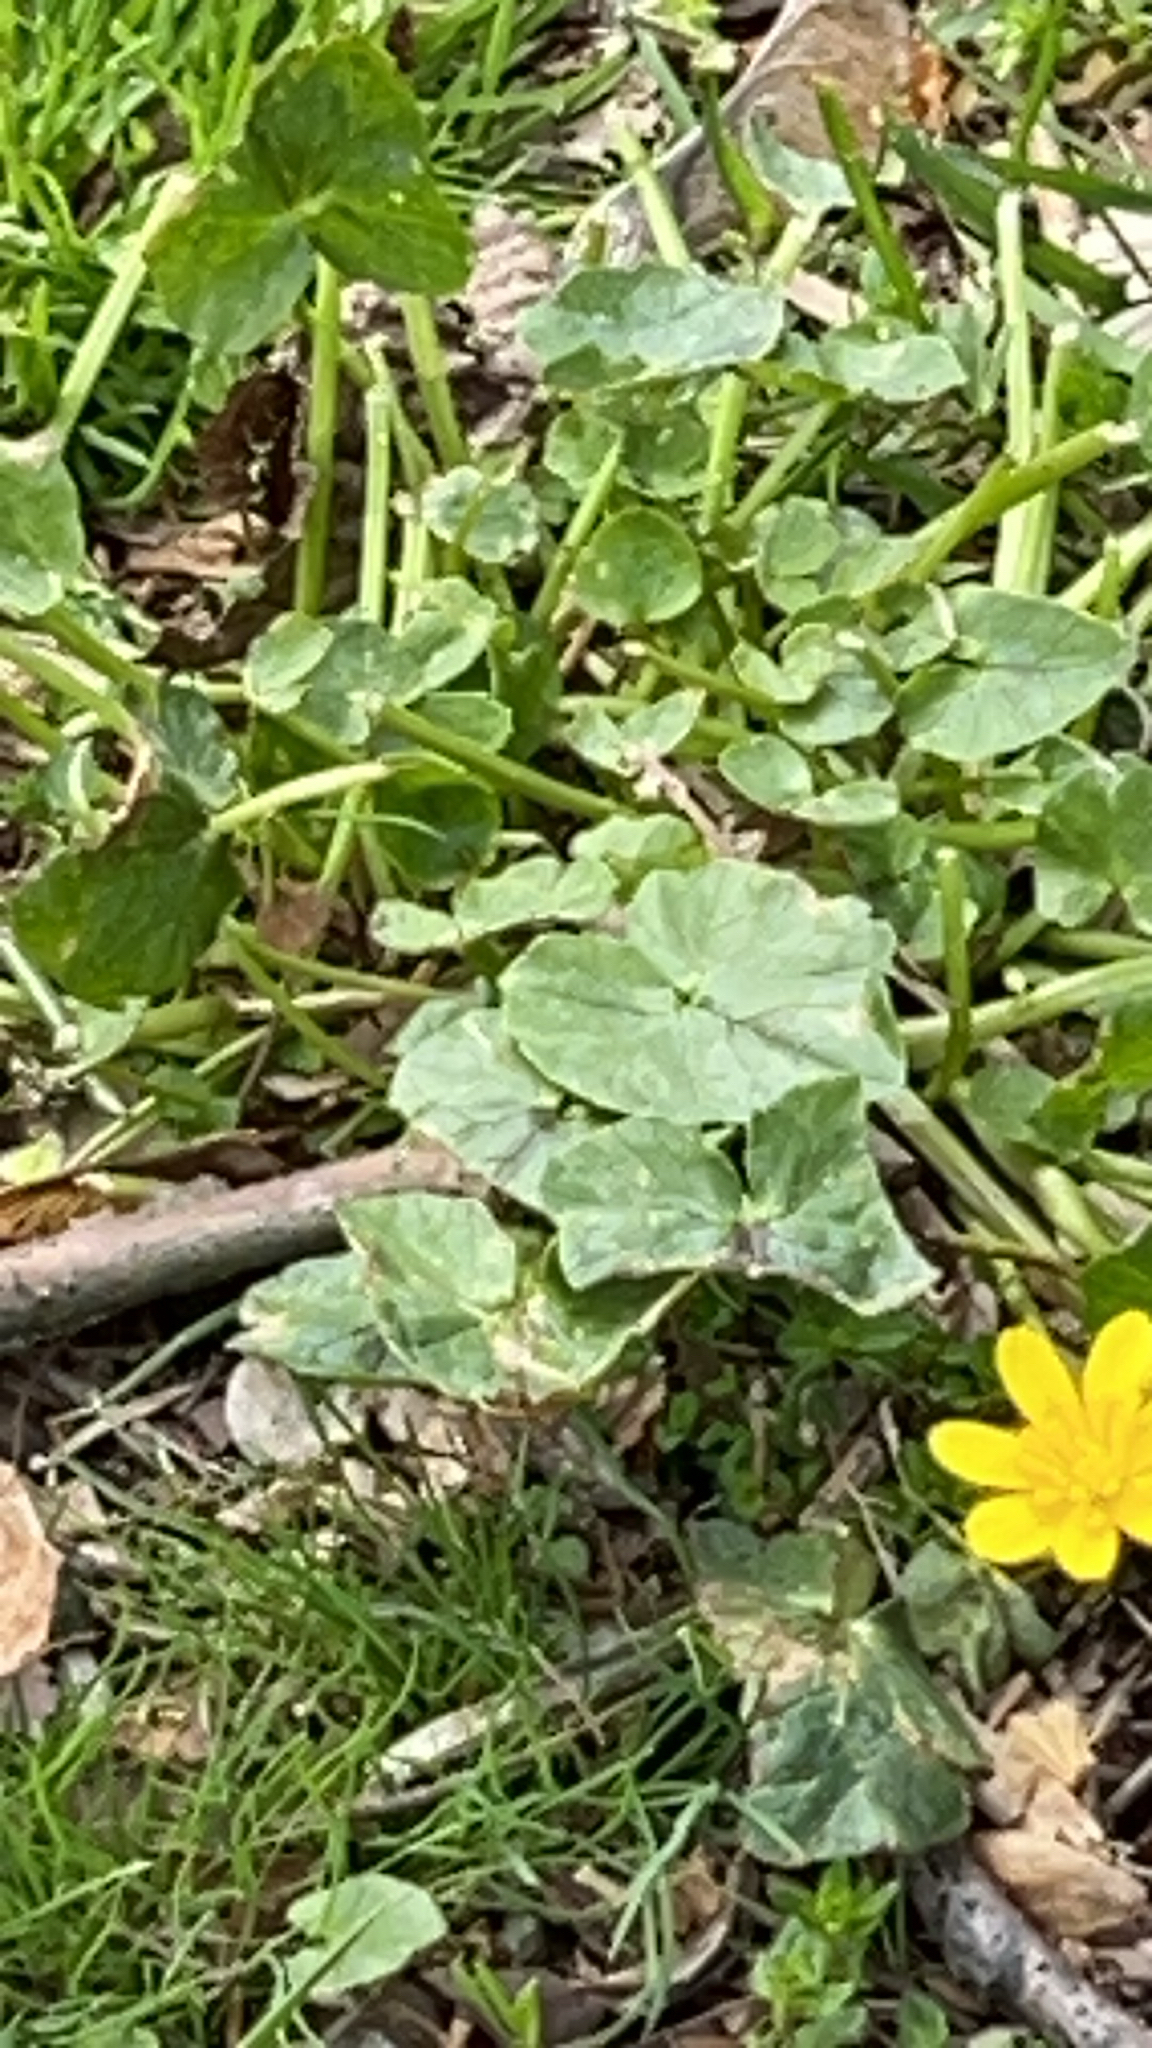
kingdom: Plantae
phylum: Tracheophyta
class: Magnoliopsida
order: Ranunculales
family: Ranunculaceae
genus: Ficaria
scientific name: Ficaria verna
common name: Lesser celandine
